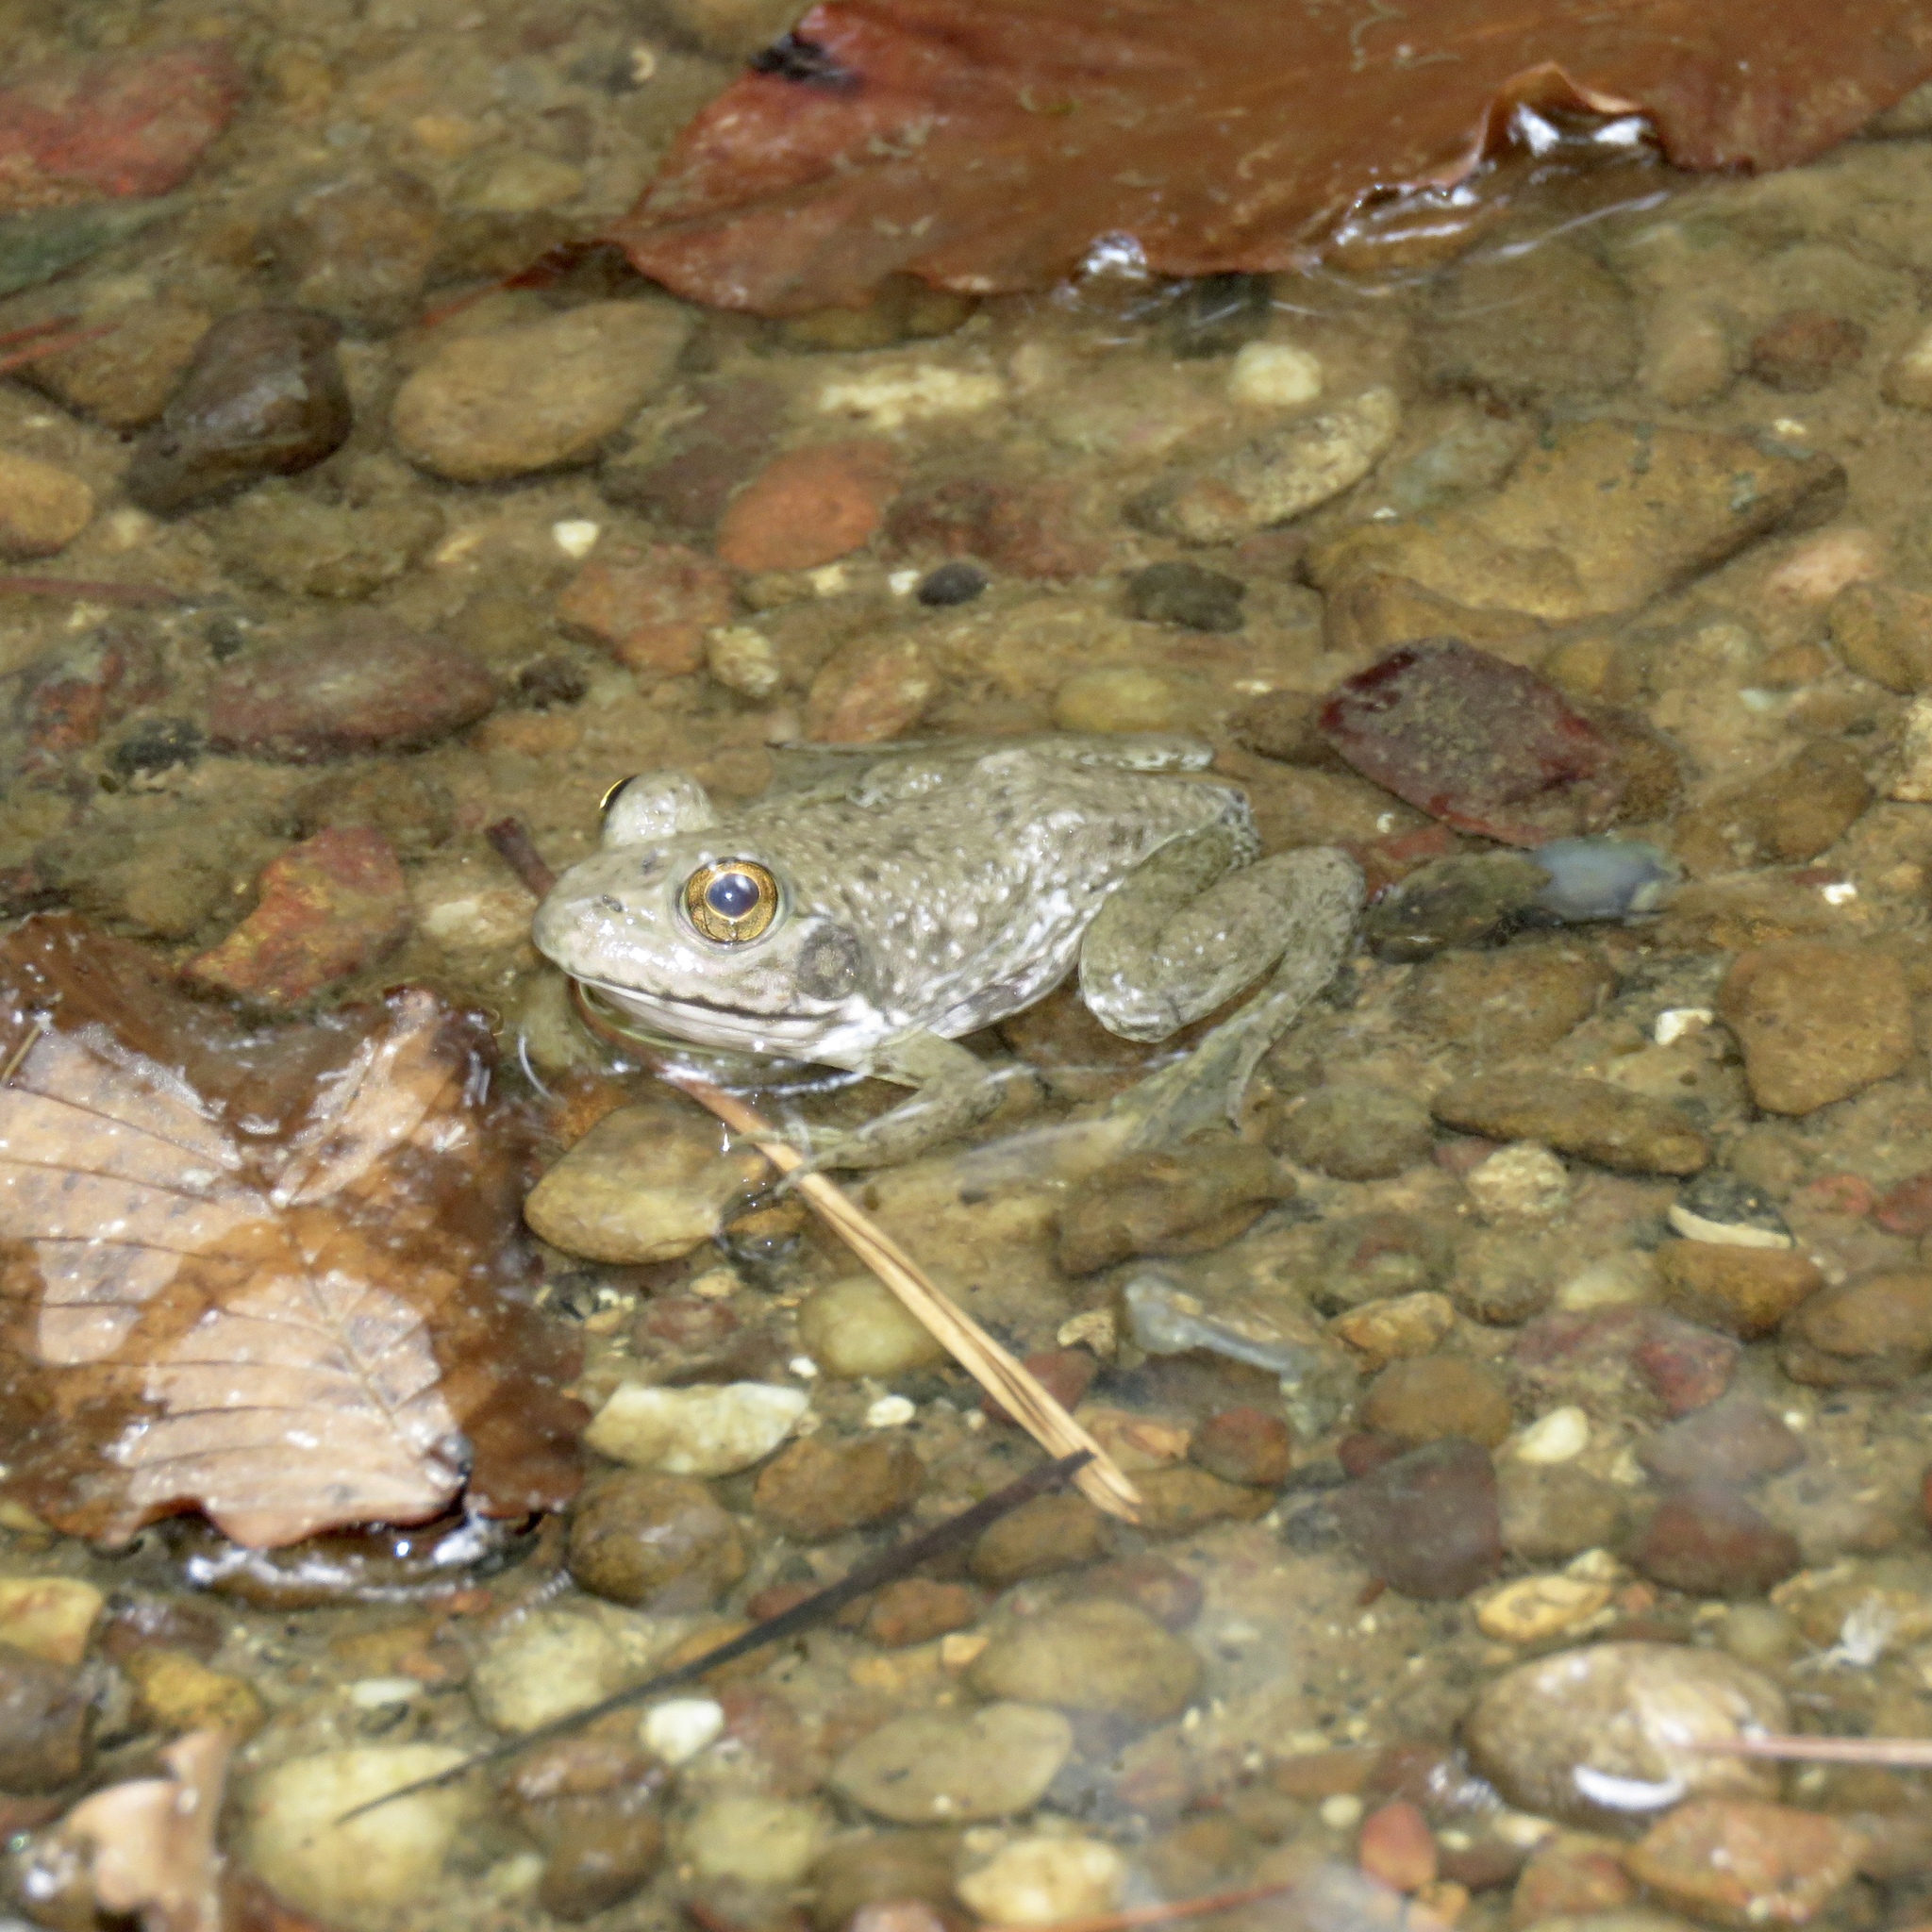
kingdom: Animalia
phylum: Chordata
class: Amphibia
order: Anura
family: Ranidae
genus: Lithobates
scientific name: Lithobates catesbeianus
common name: American bullfrog
